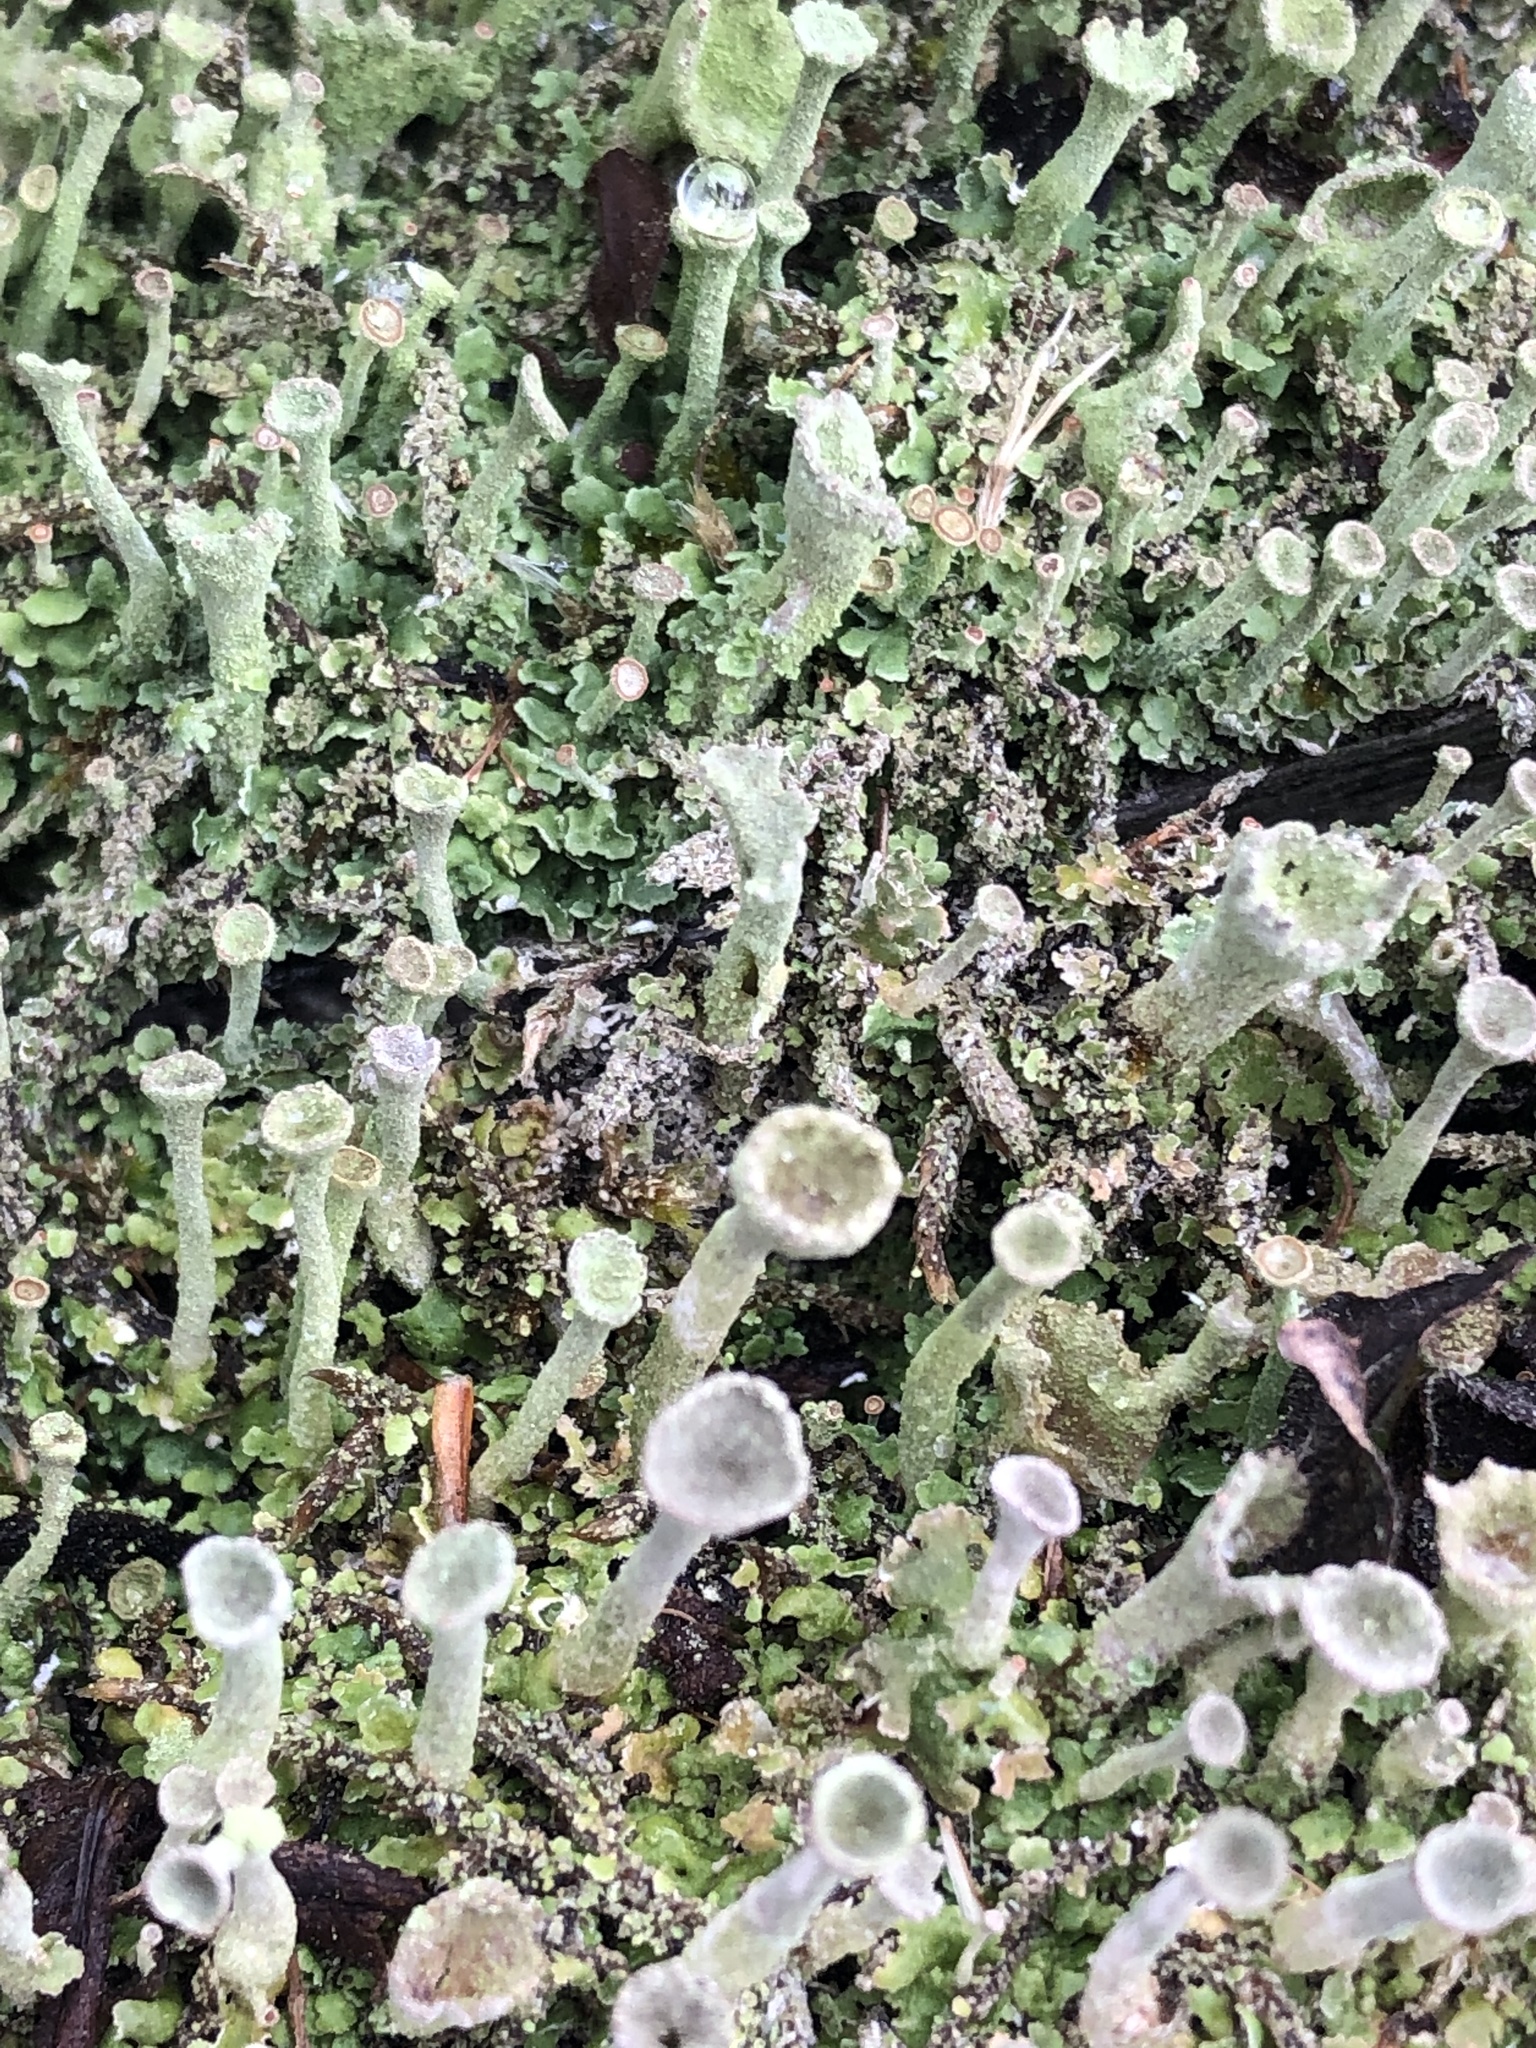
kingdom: Fungi
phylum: Ascomycota
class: Lecanoromycetes
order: Lecanorales
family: Cladoniaceae
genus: Cladonia
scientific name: Cladonia fimbriata
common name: Powdered trumpet lichen
